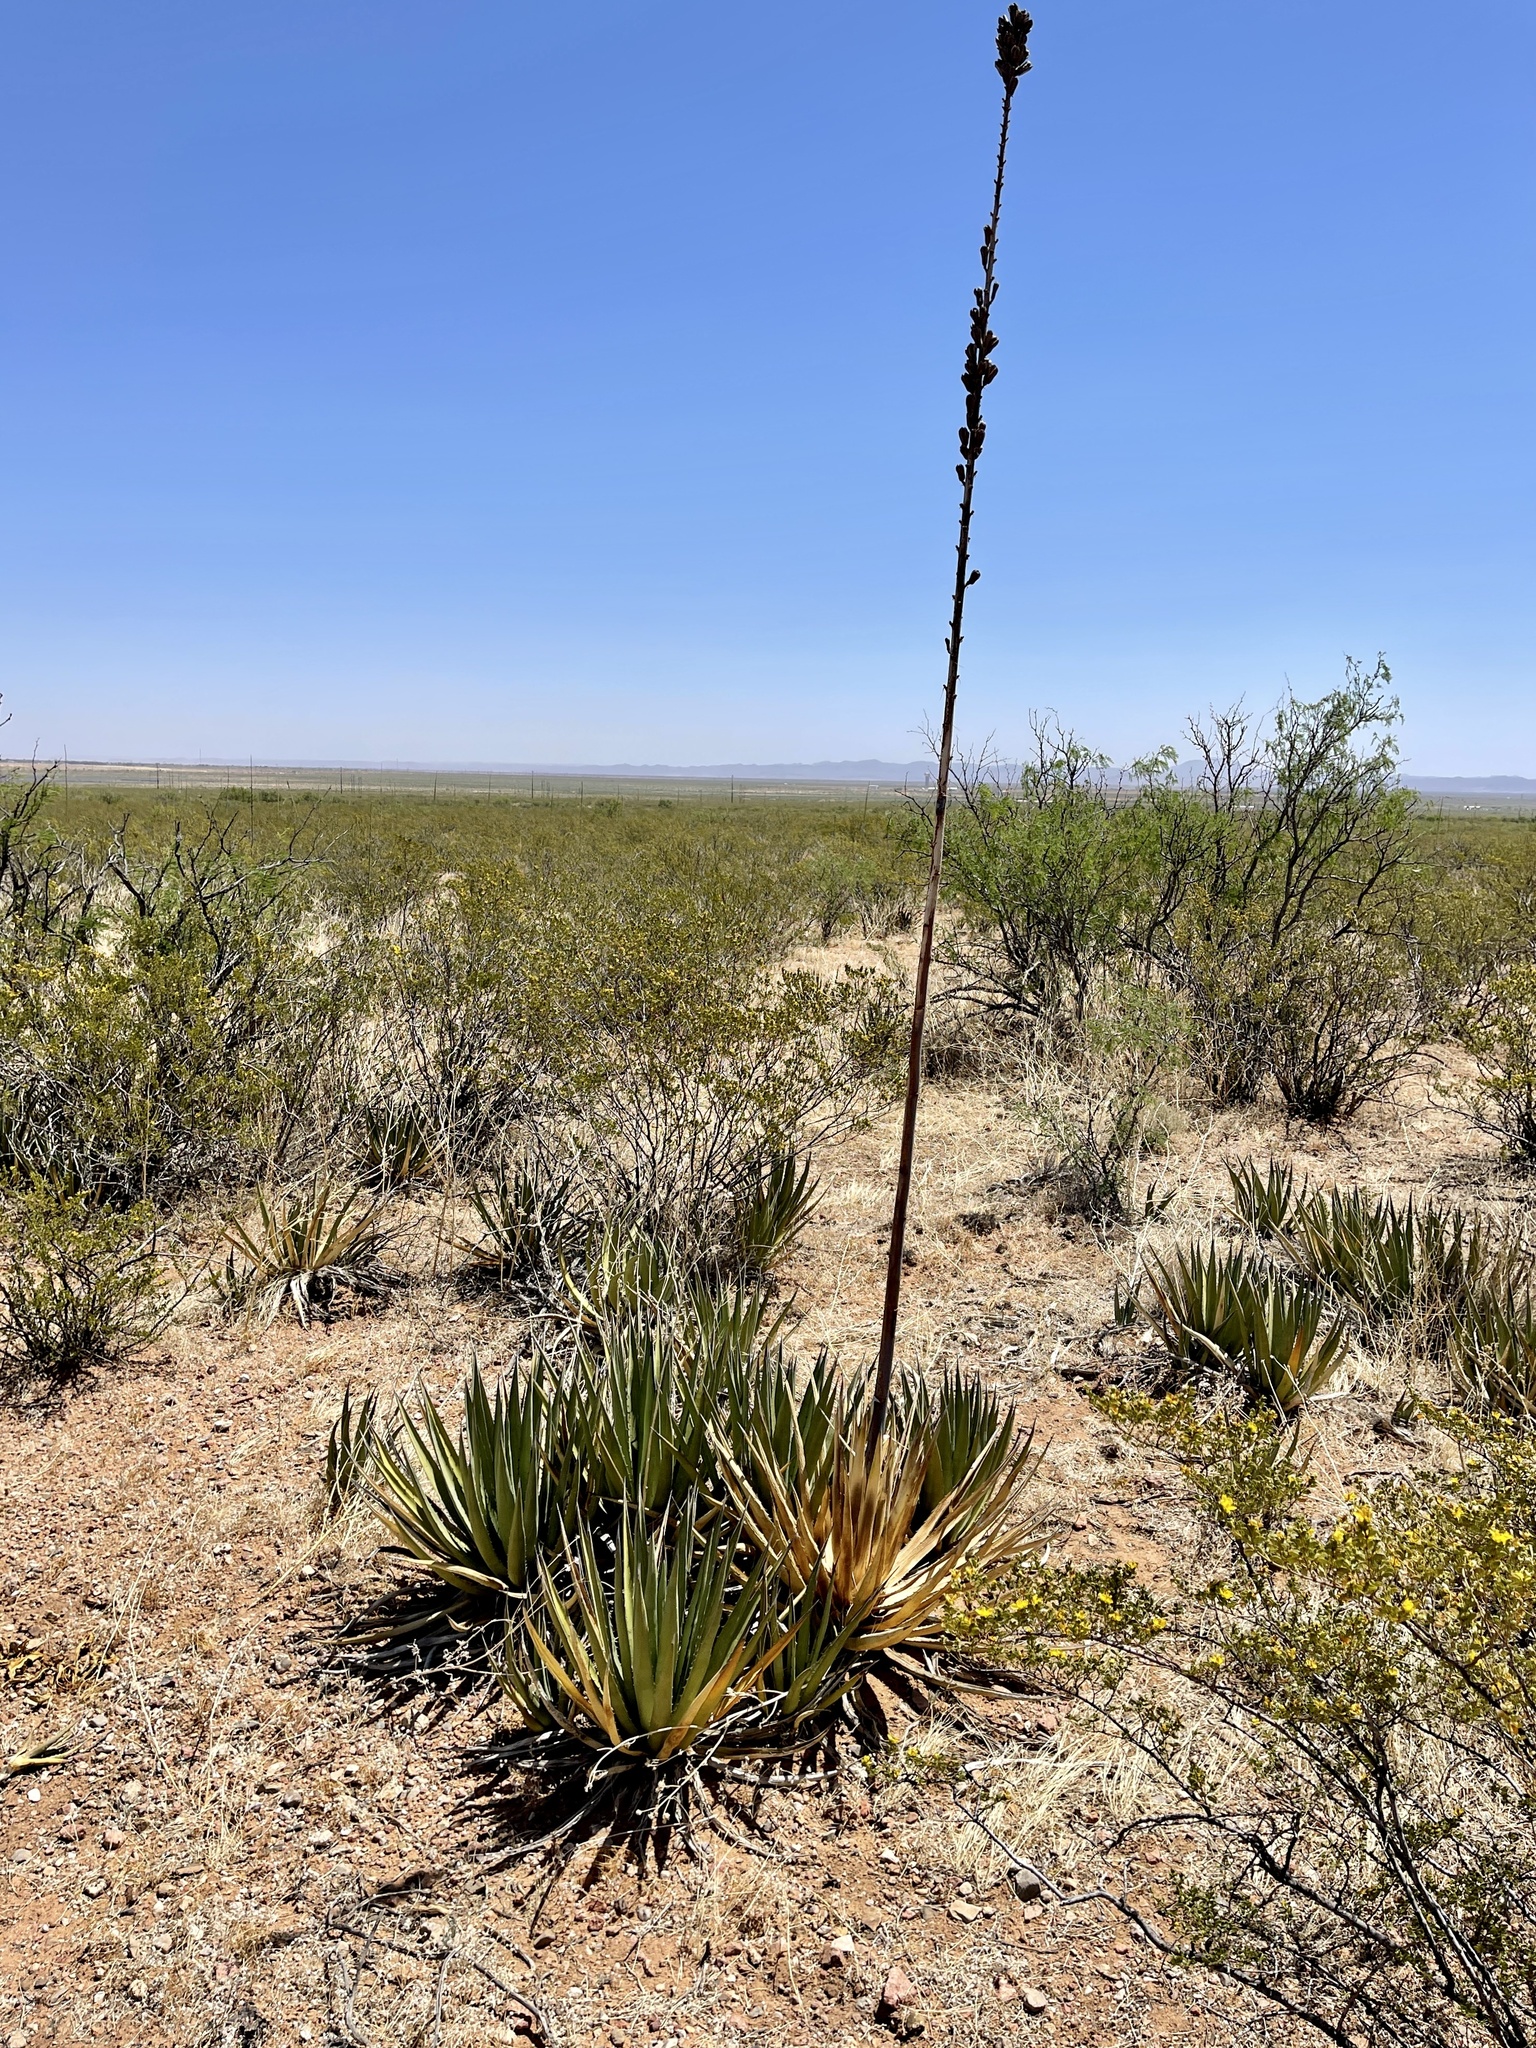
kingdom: Plantae
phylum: Tracheophyta
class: Liliopsida
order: Asparagales
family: Asparagaceae
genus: Agave
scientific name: Agave lechuguilla
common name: Lecheguilla agave
